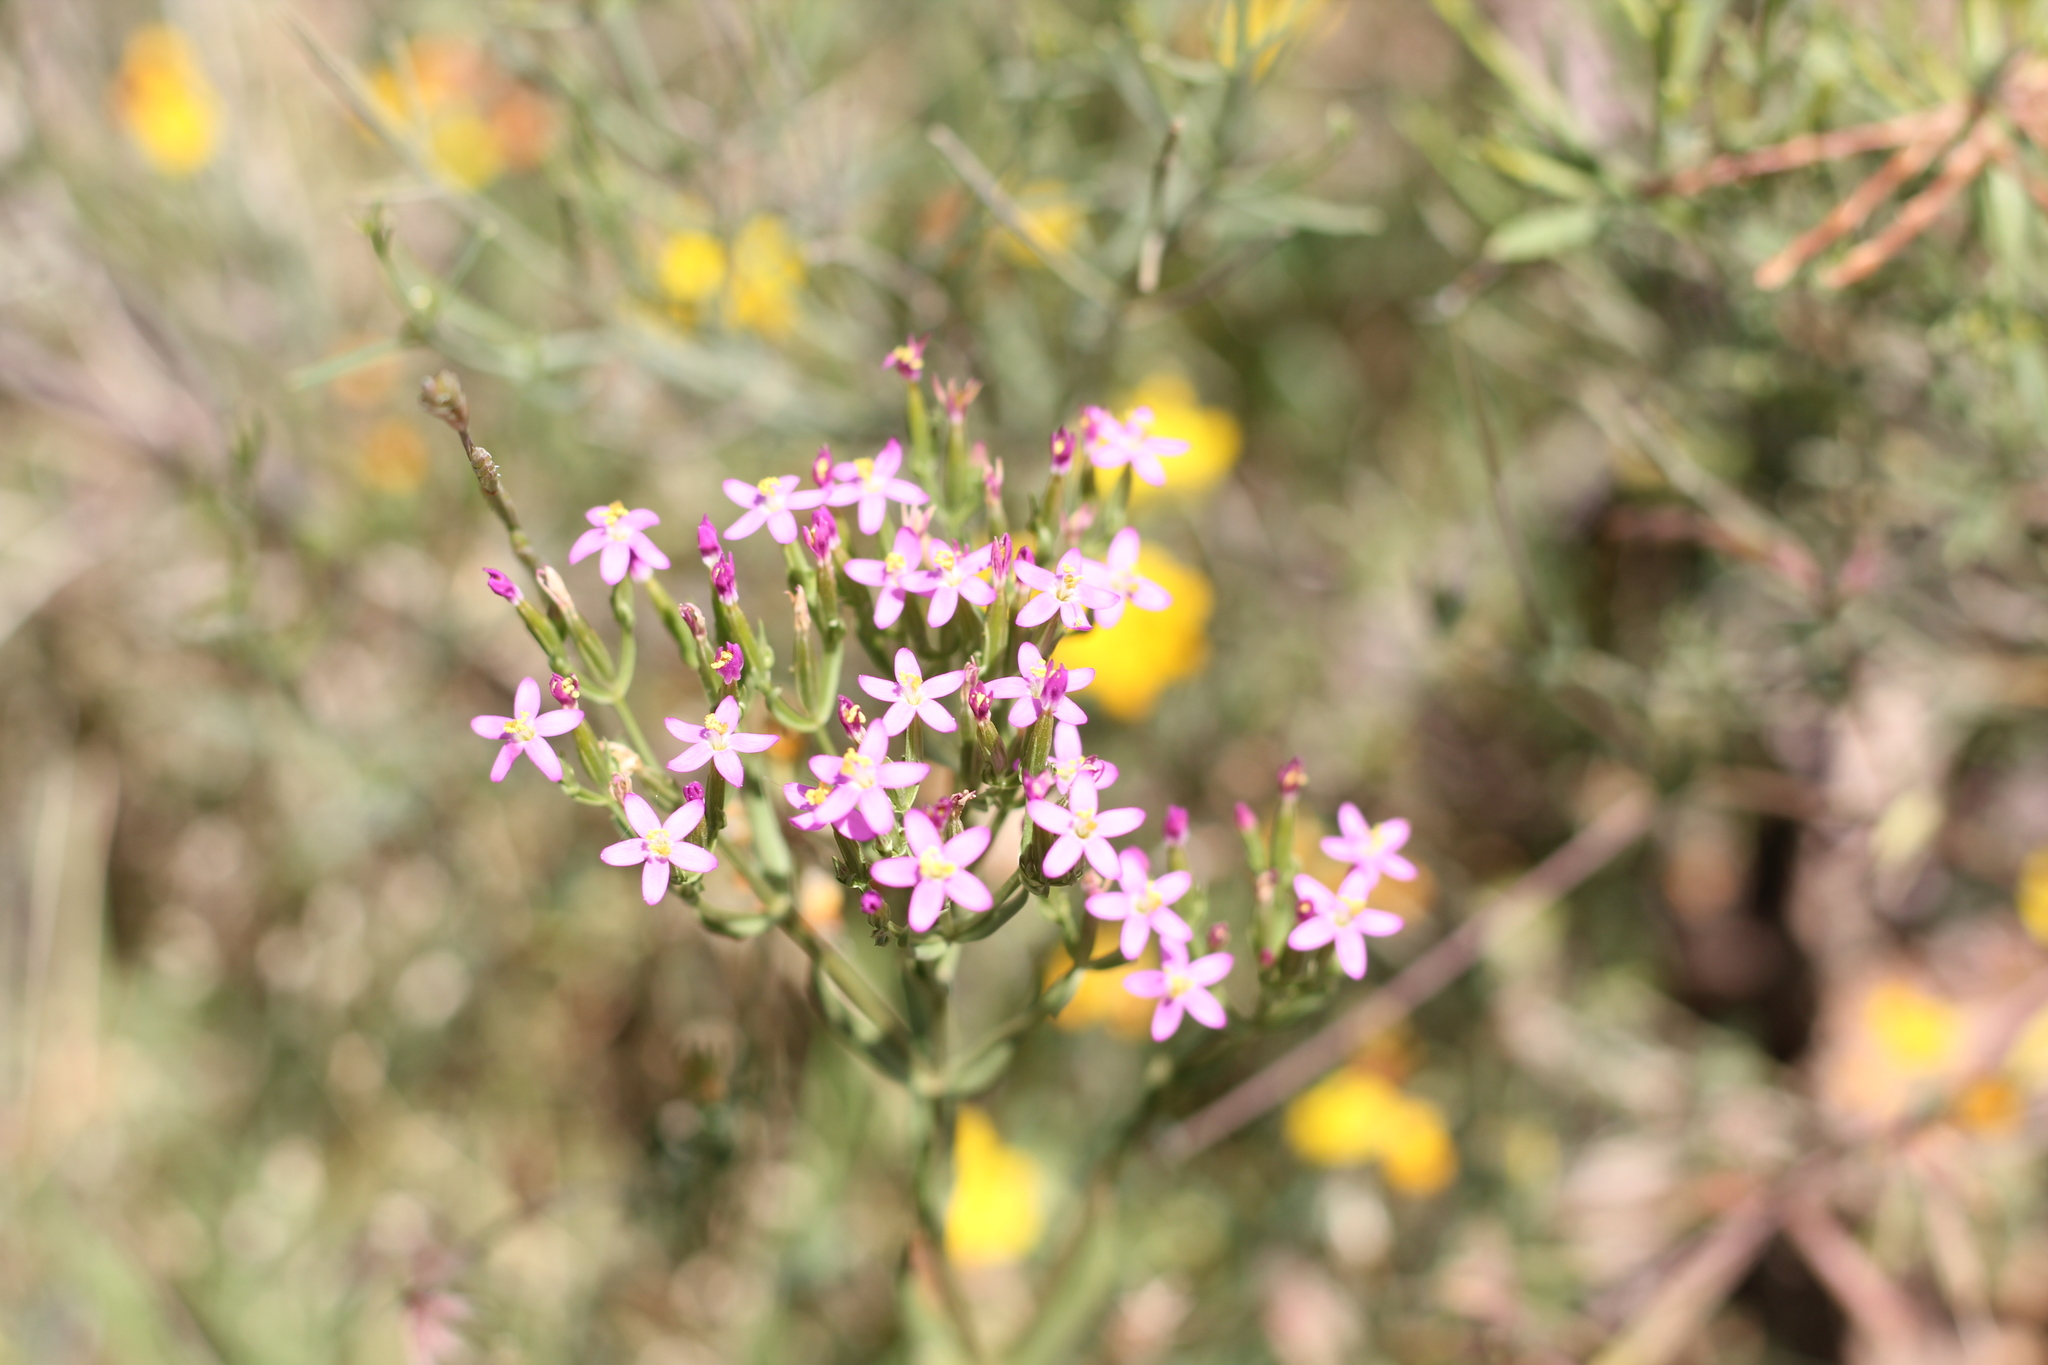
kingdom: Plantae
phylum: Tracheophyta
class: Magnoliopsida
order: Gentianales
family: Gentianaceae
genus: Centaurium
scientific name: Centaurium pulchellum
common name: Lesser centaury
